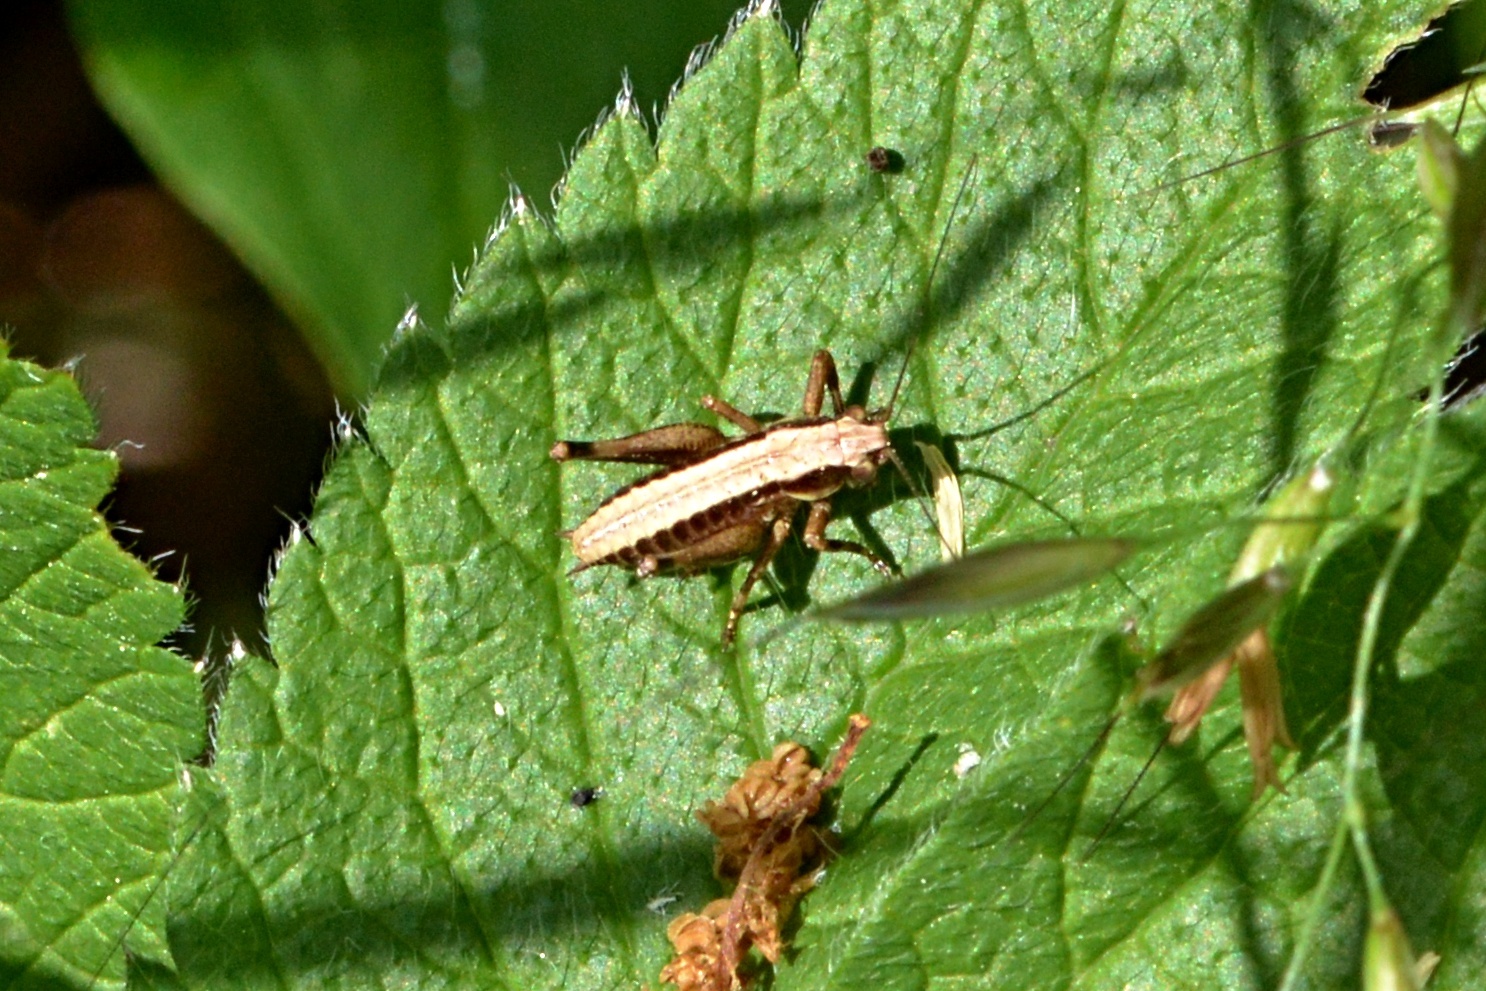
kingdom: Animalia
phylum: Arthropoda
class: Insecta
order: Orthoptera
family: Tettigoniidae
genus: Pholidoptera
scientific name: Pholidoptera griseoaptera
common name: Dark bush-cricket
